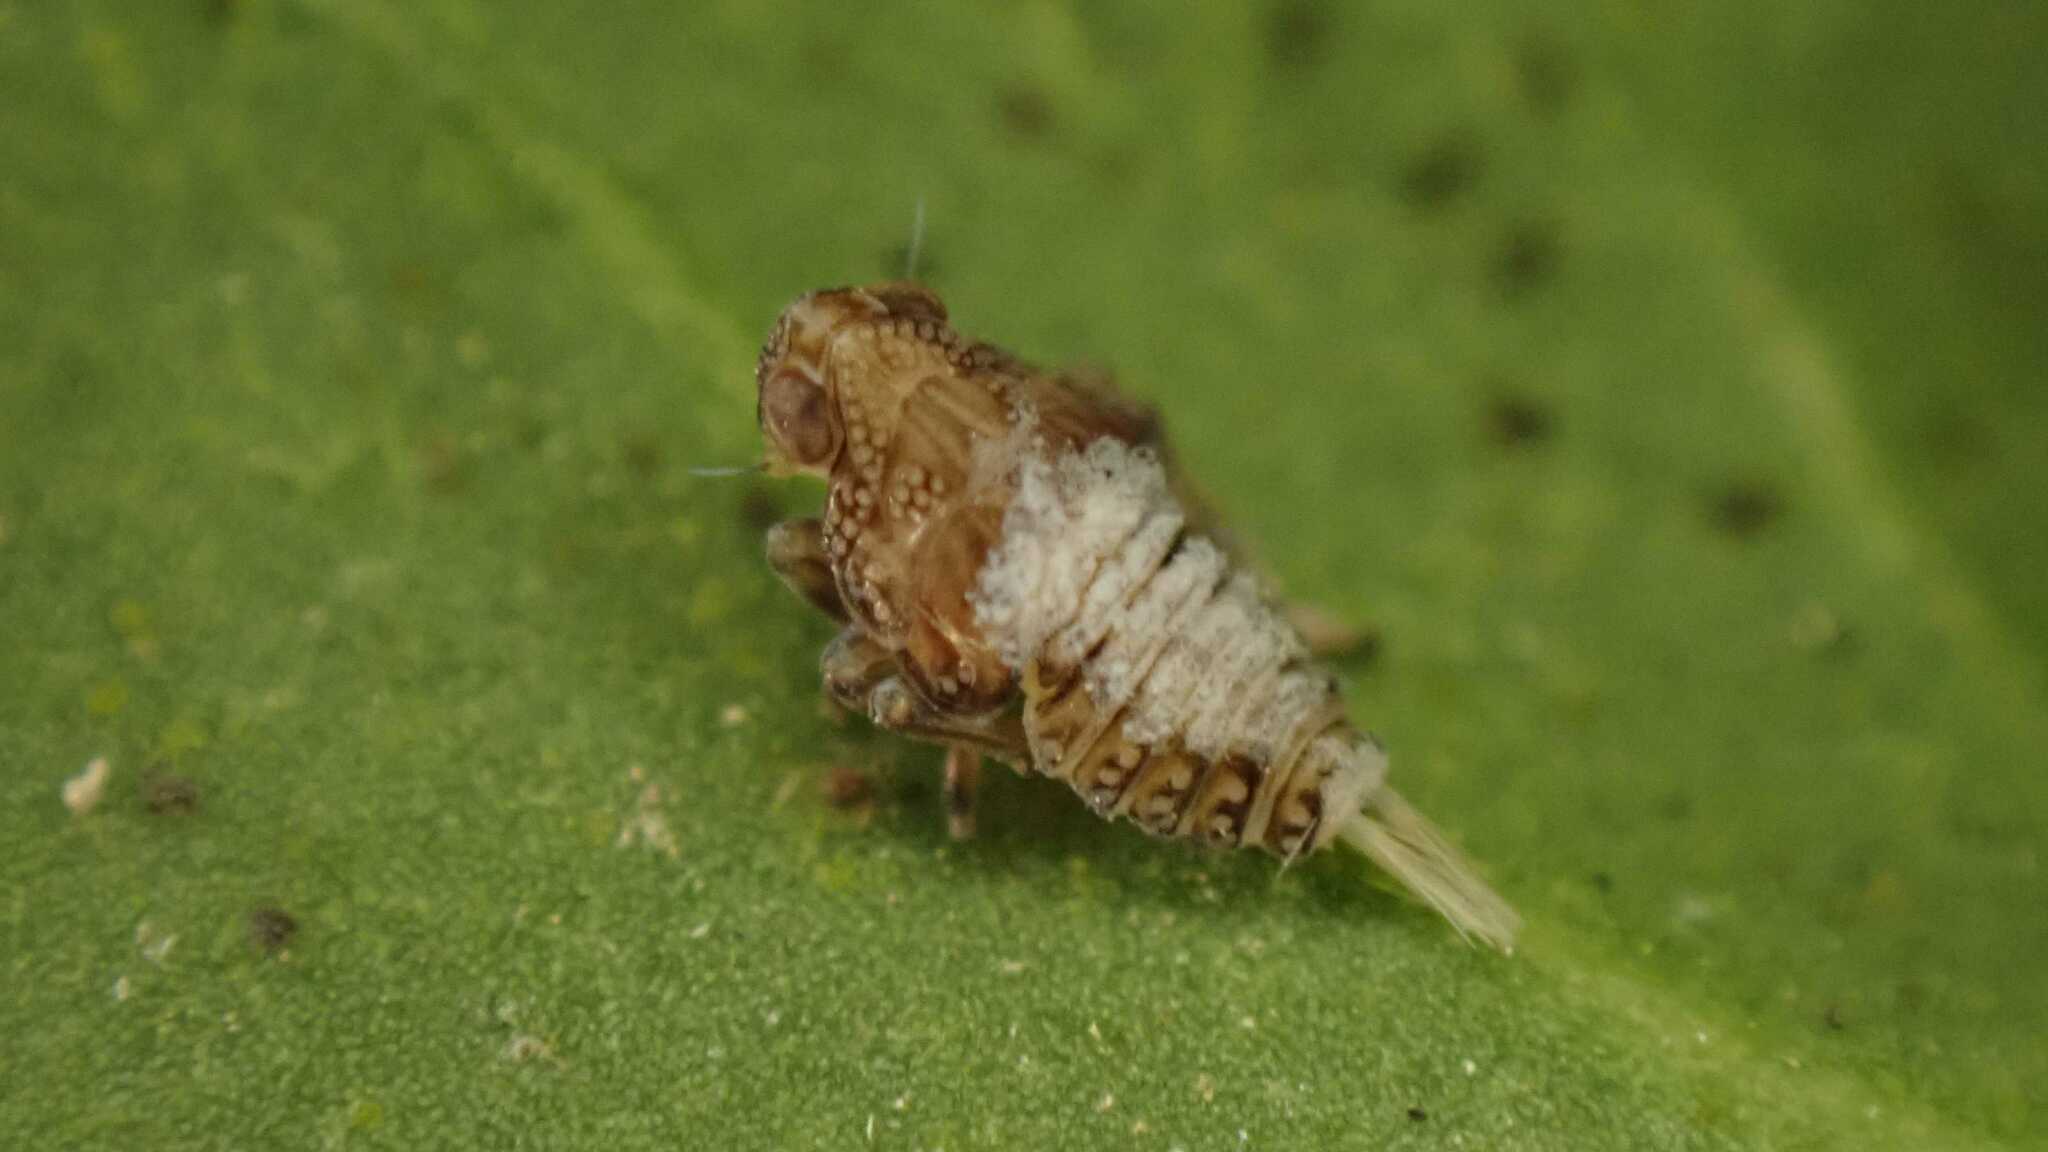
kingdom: Animalia
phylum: Arthropoda
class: Insecta
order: Hemiptera
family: Issidae
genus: Issus
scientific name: Issus coleoptratus
